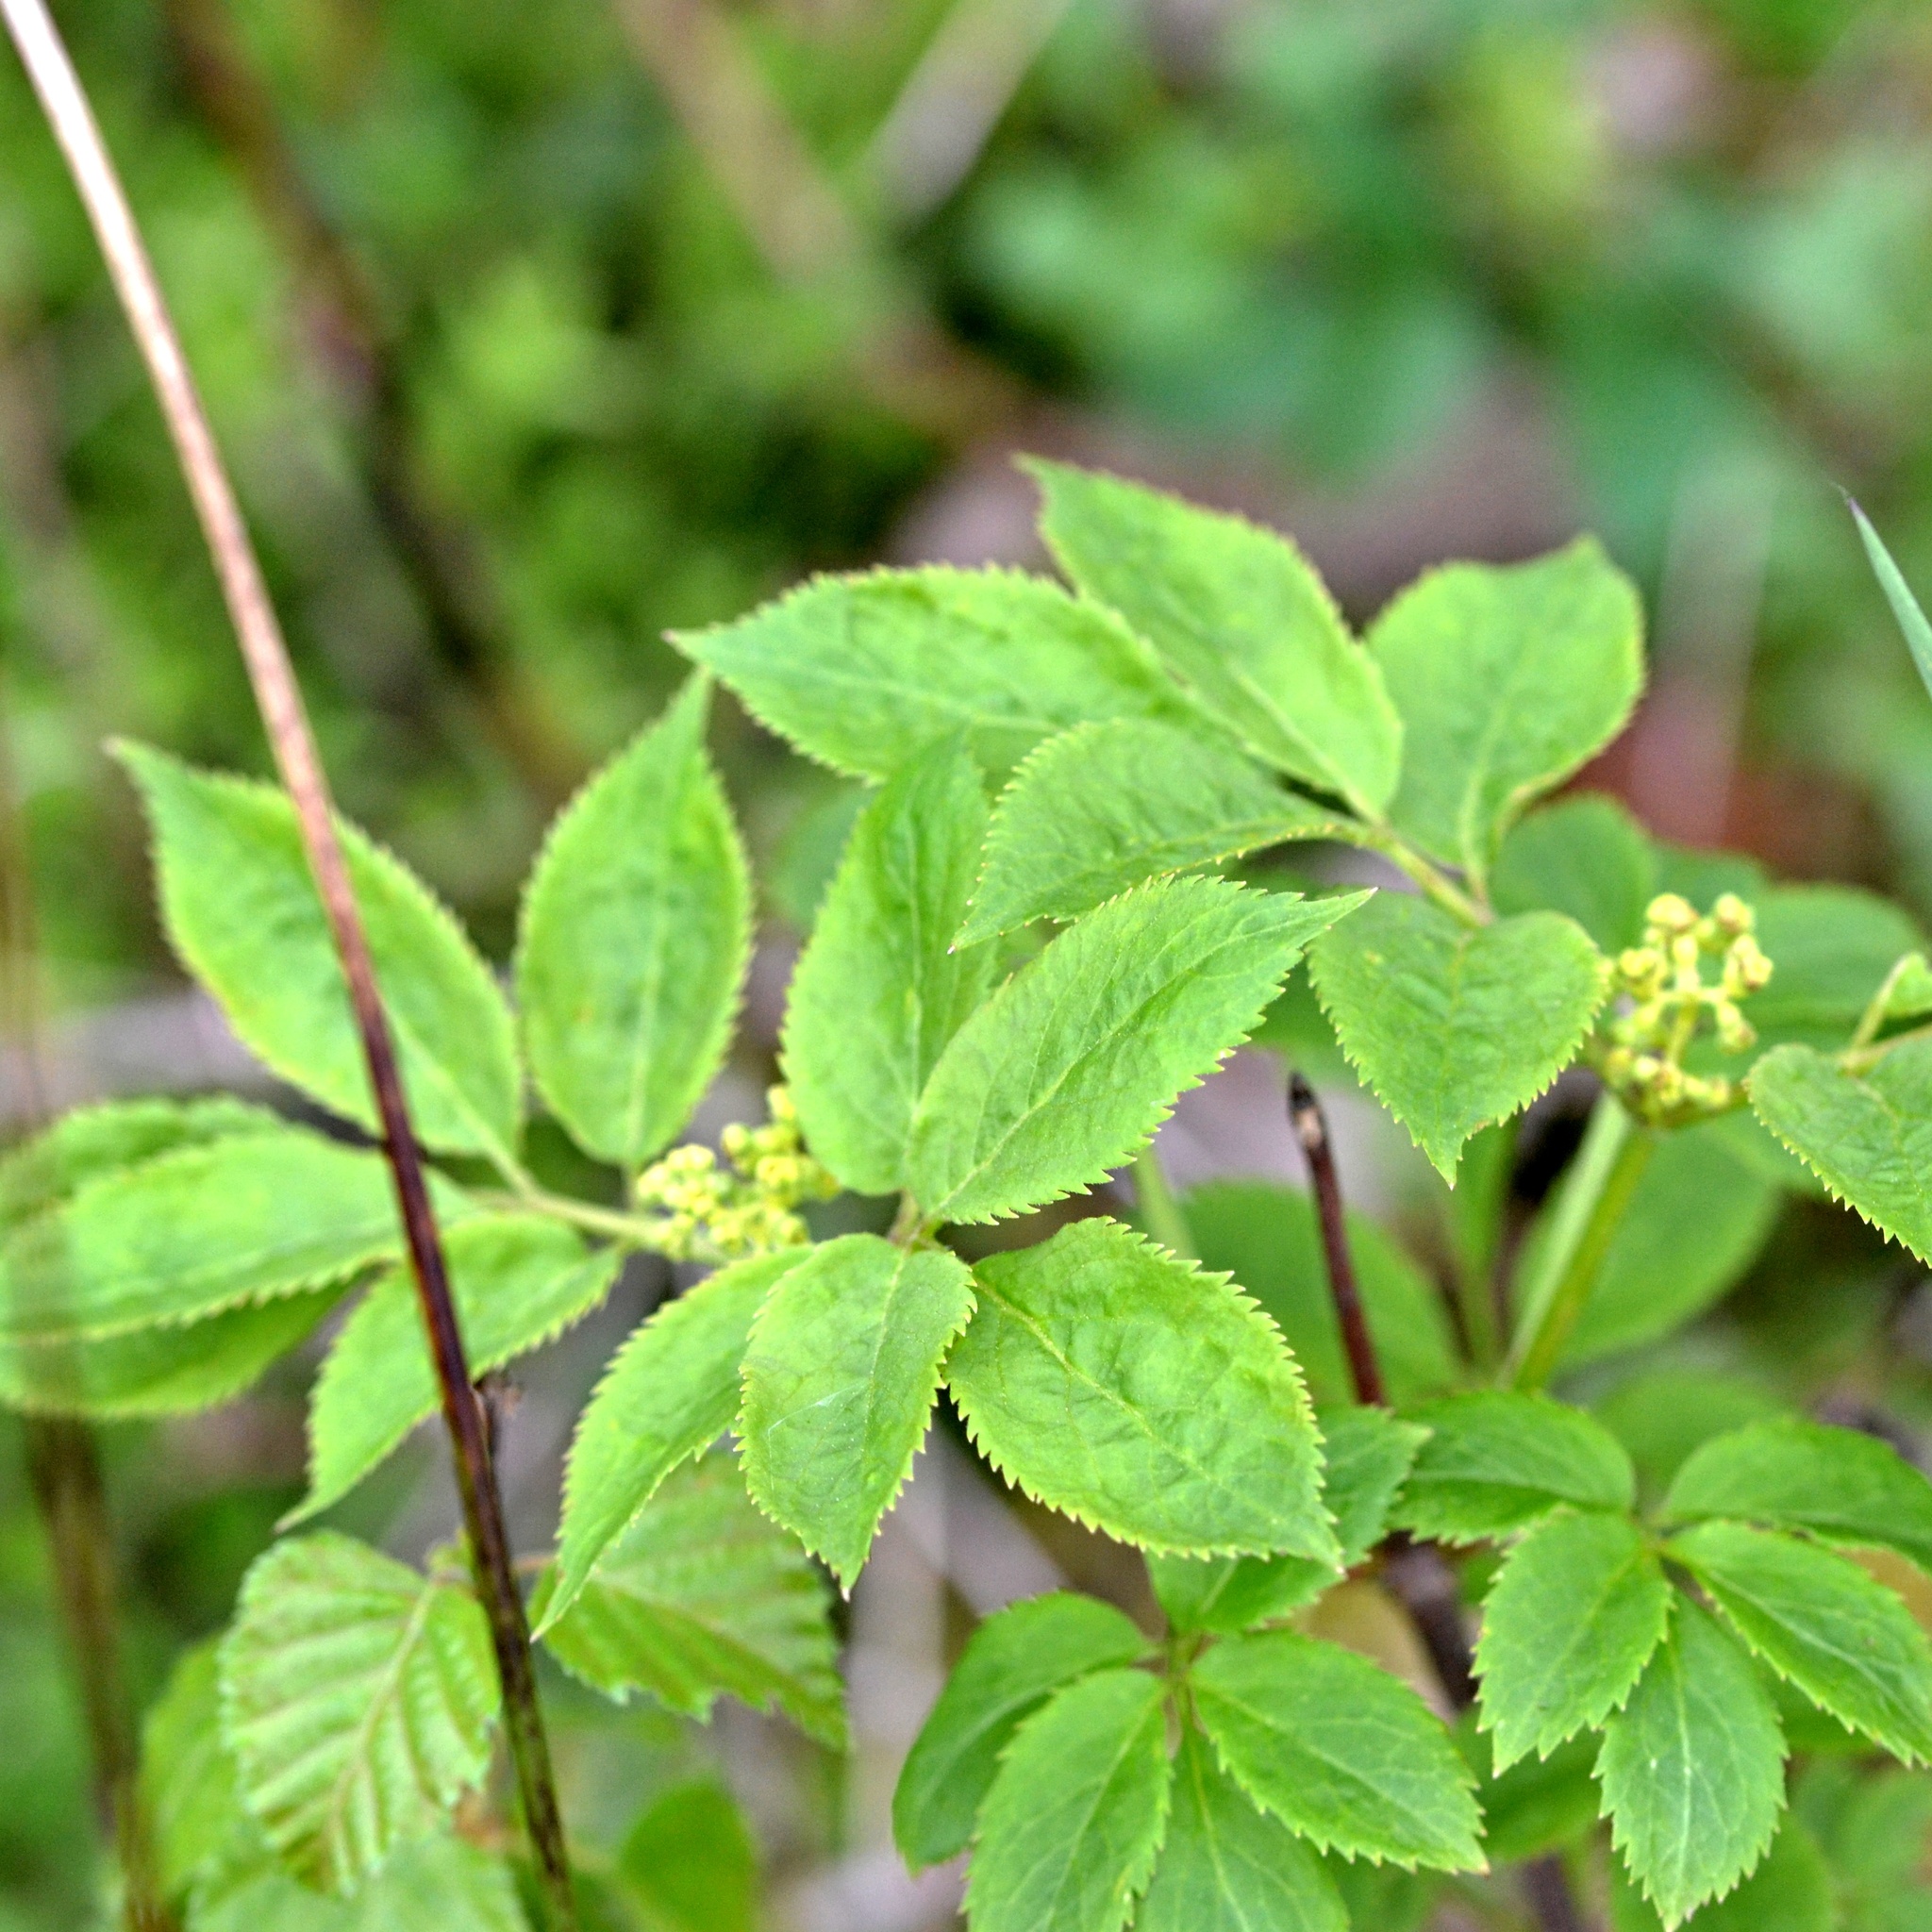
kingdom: Plantae
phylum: Tracheophyta
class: Magnoliopsida
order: Dipsacales
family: Viburnaceae
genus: Sambucus
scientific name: Sambucus racemosa
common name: Red-berried elder
